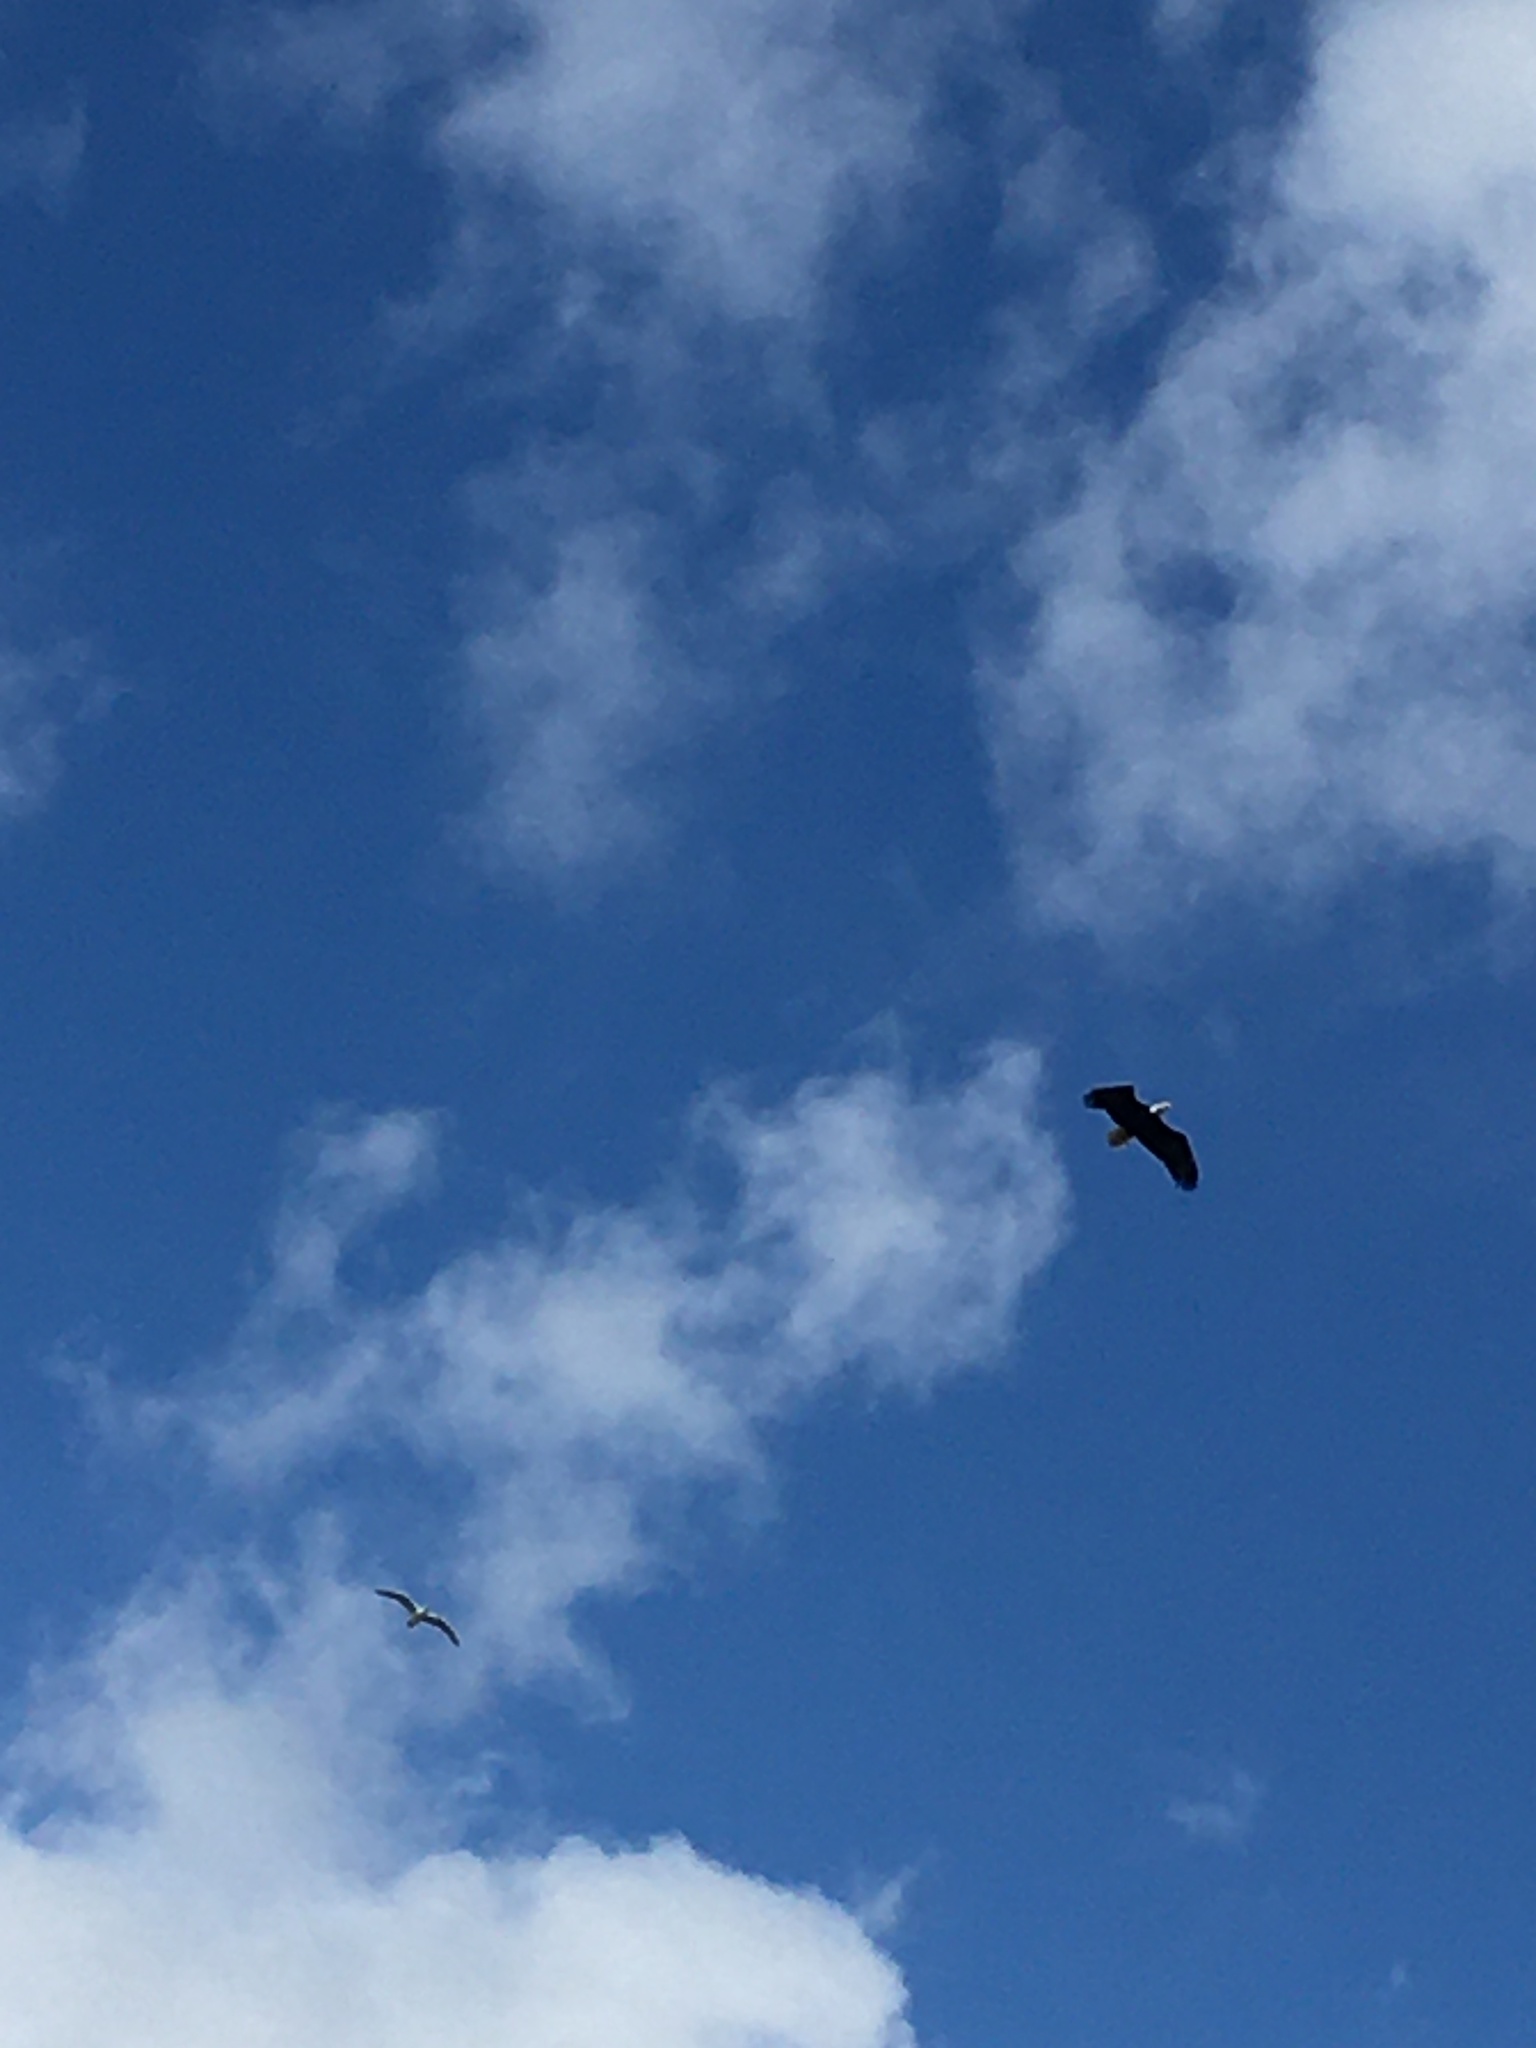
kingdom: Animalia
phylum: Chordata
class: Aves
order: Accipitriformes
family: Accipitridae
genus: Haliaeetus
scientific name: Haliaeetus leucocephalus
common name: Bald eagle
